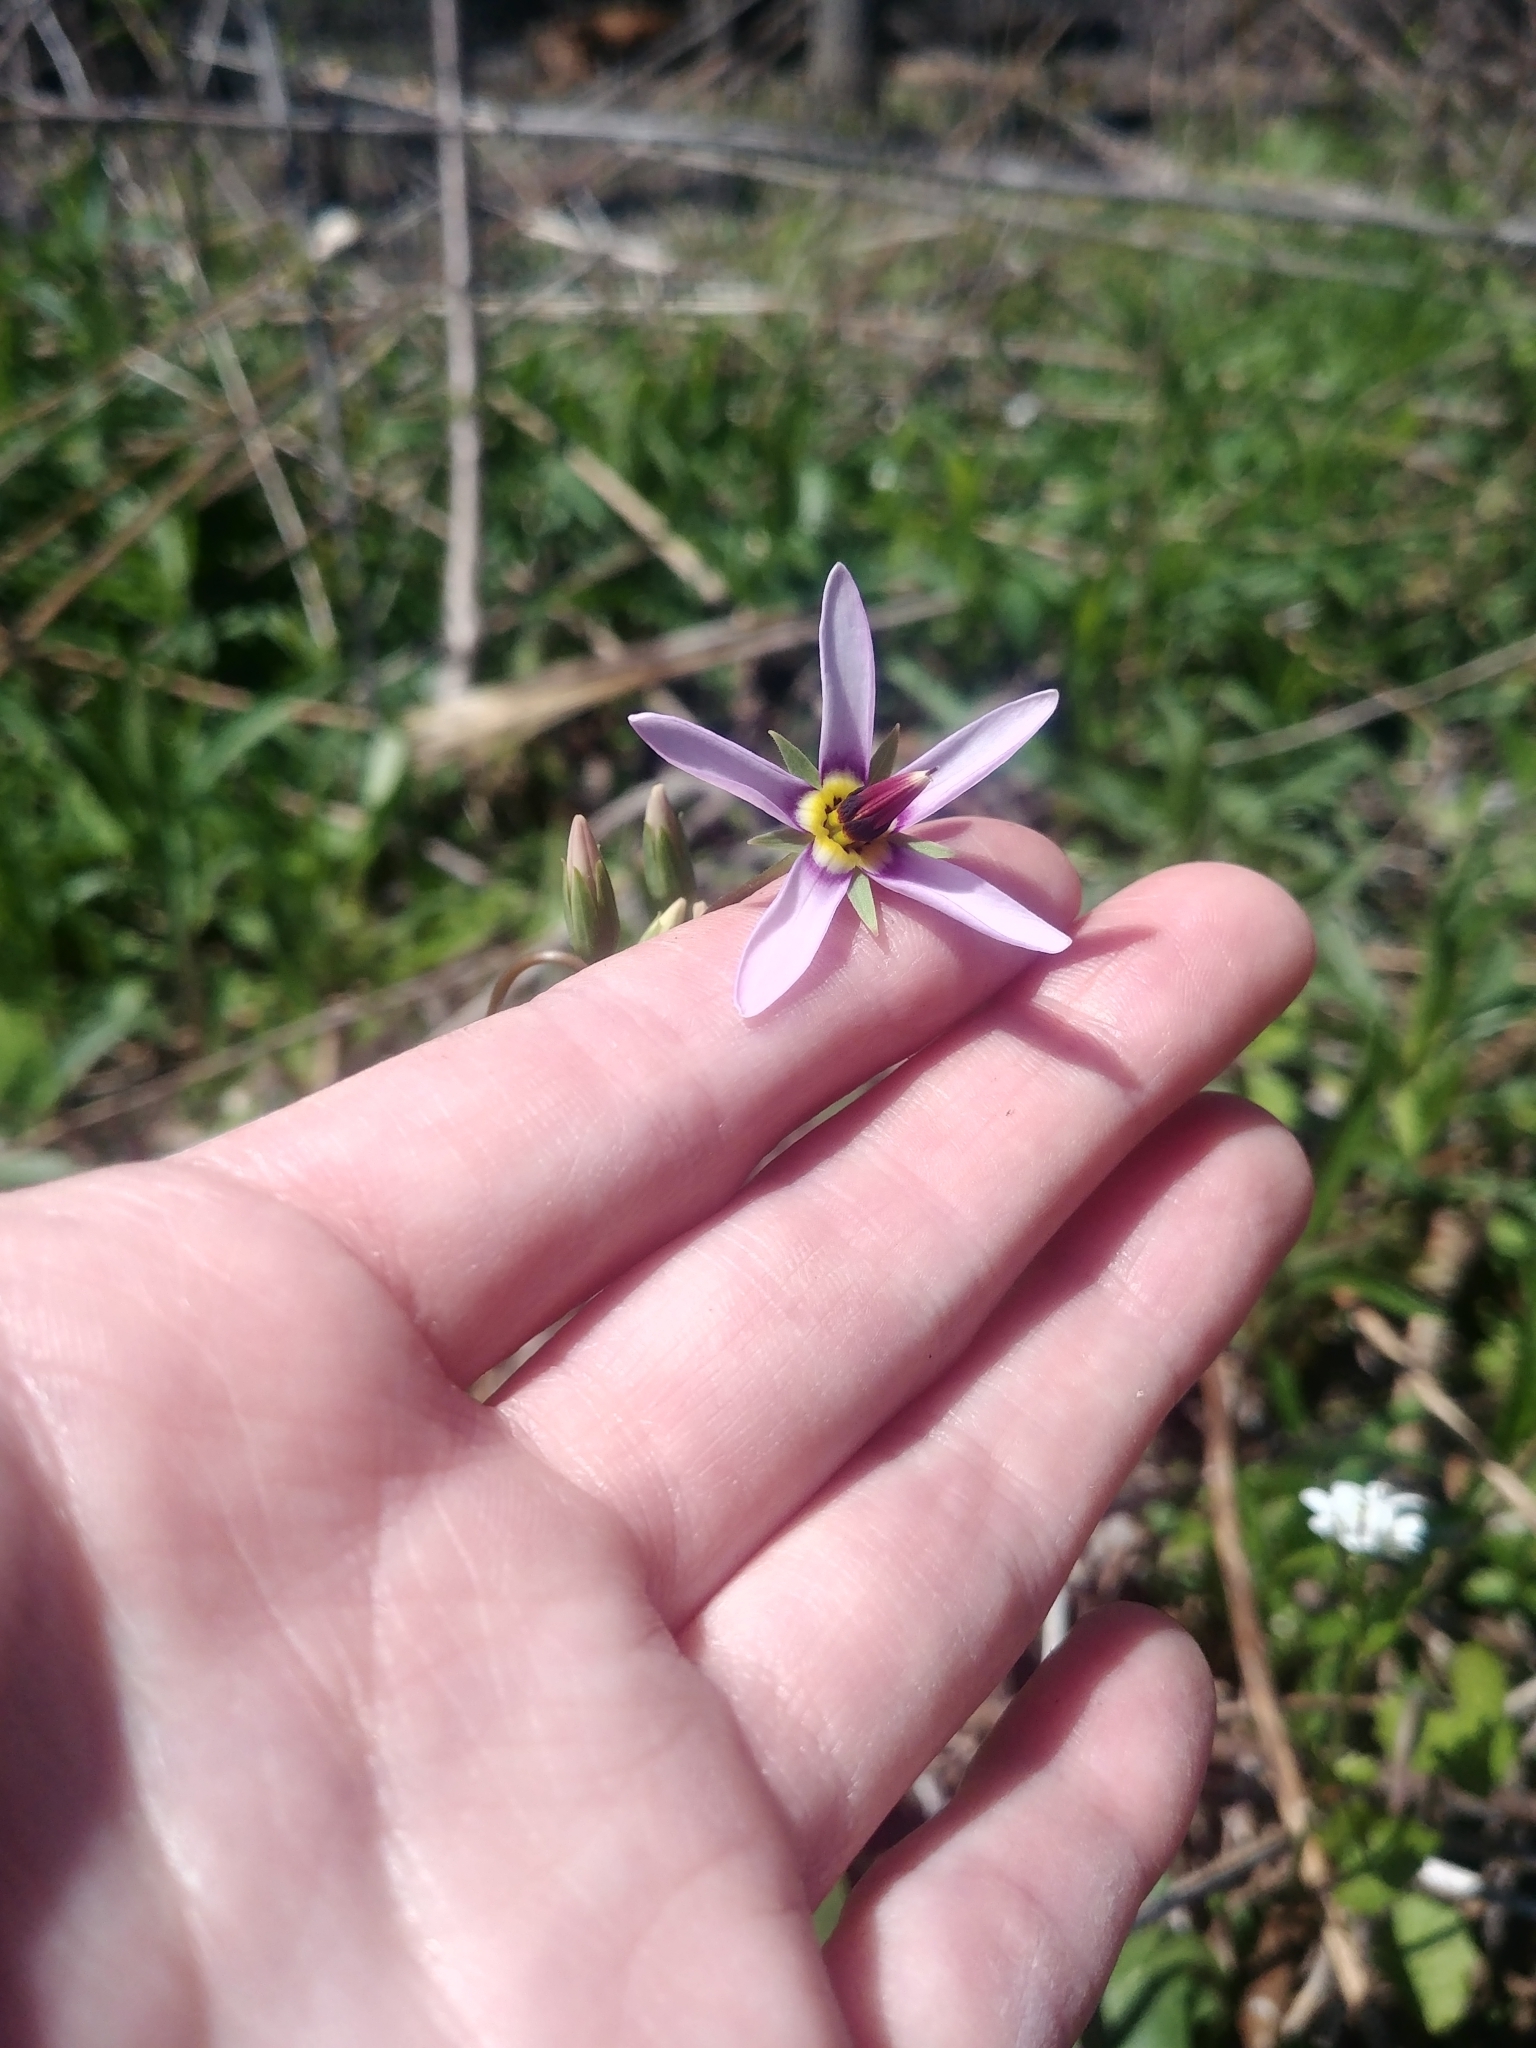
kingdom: Plantae
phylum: Tracheophyta
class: Magnoliopsida
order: Ericales
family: Primulaceae
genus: Dodecatheon
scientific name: Dodecatheon meadia
